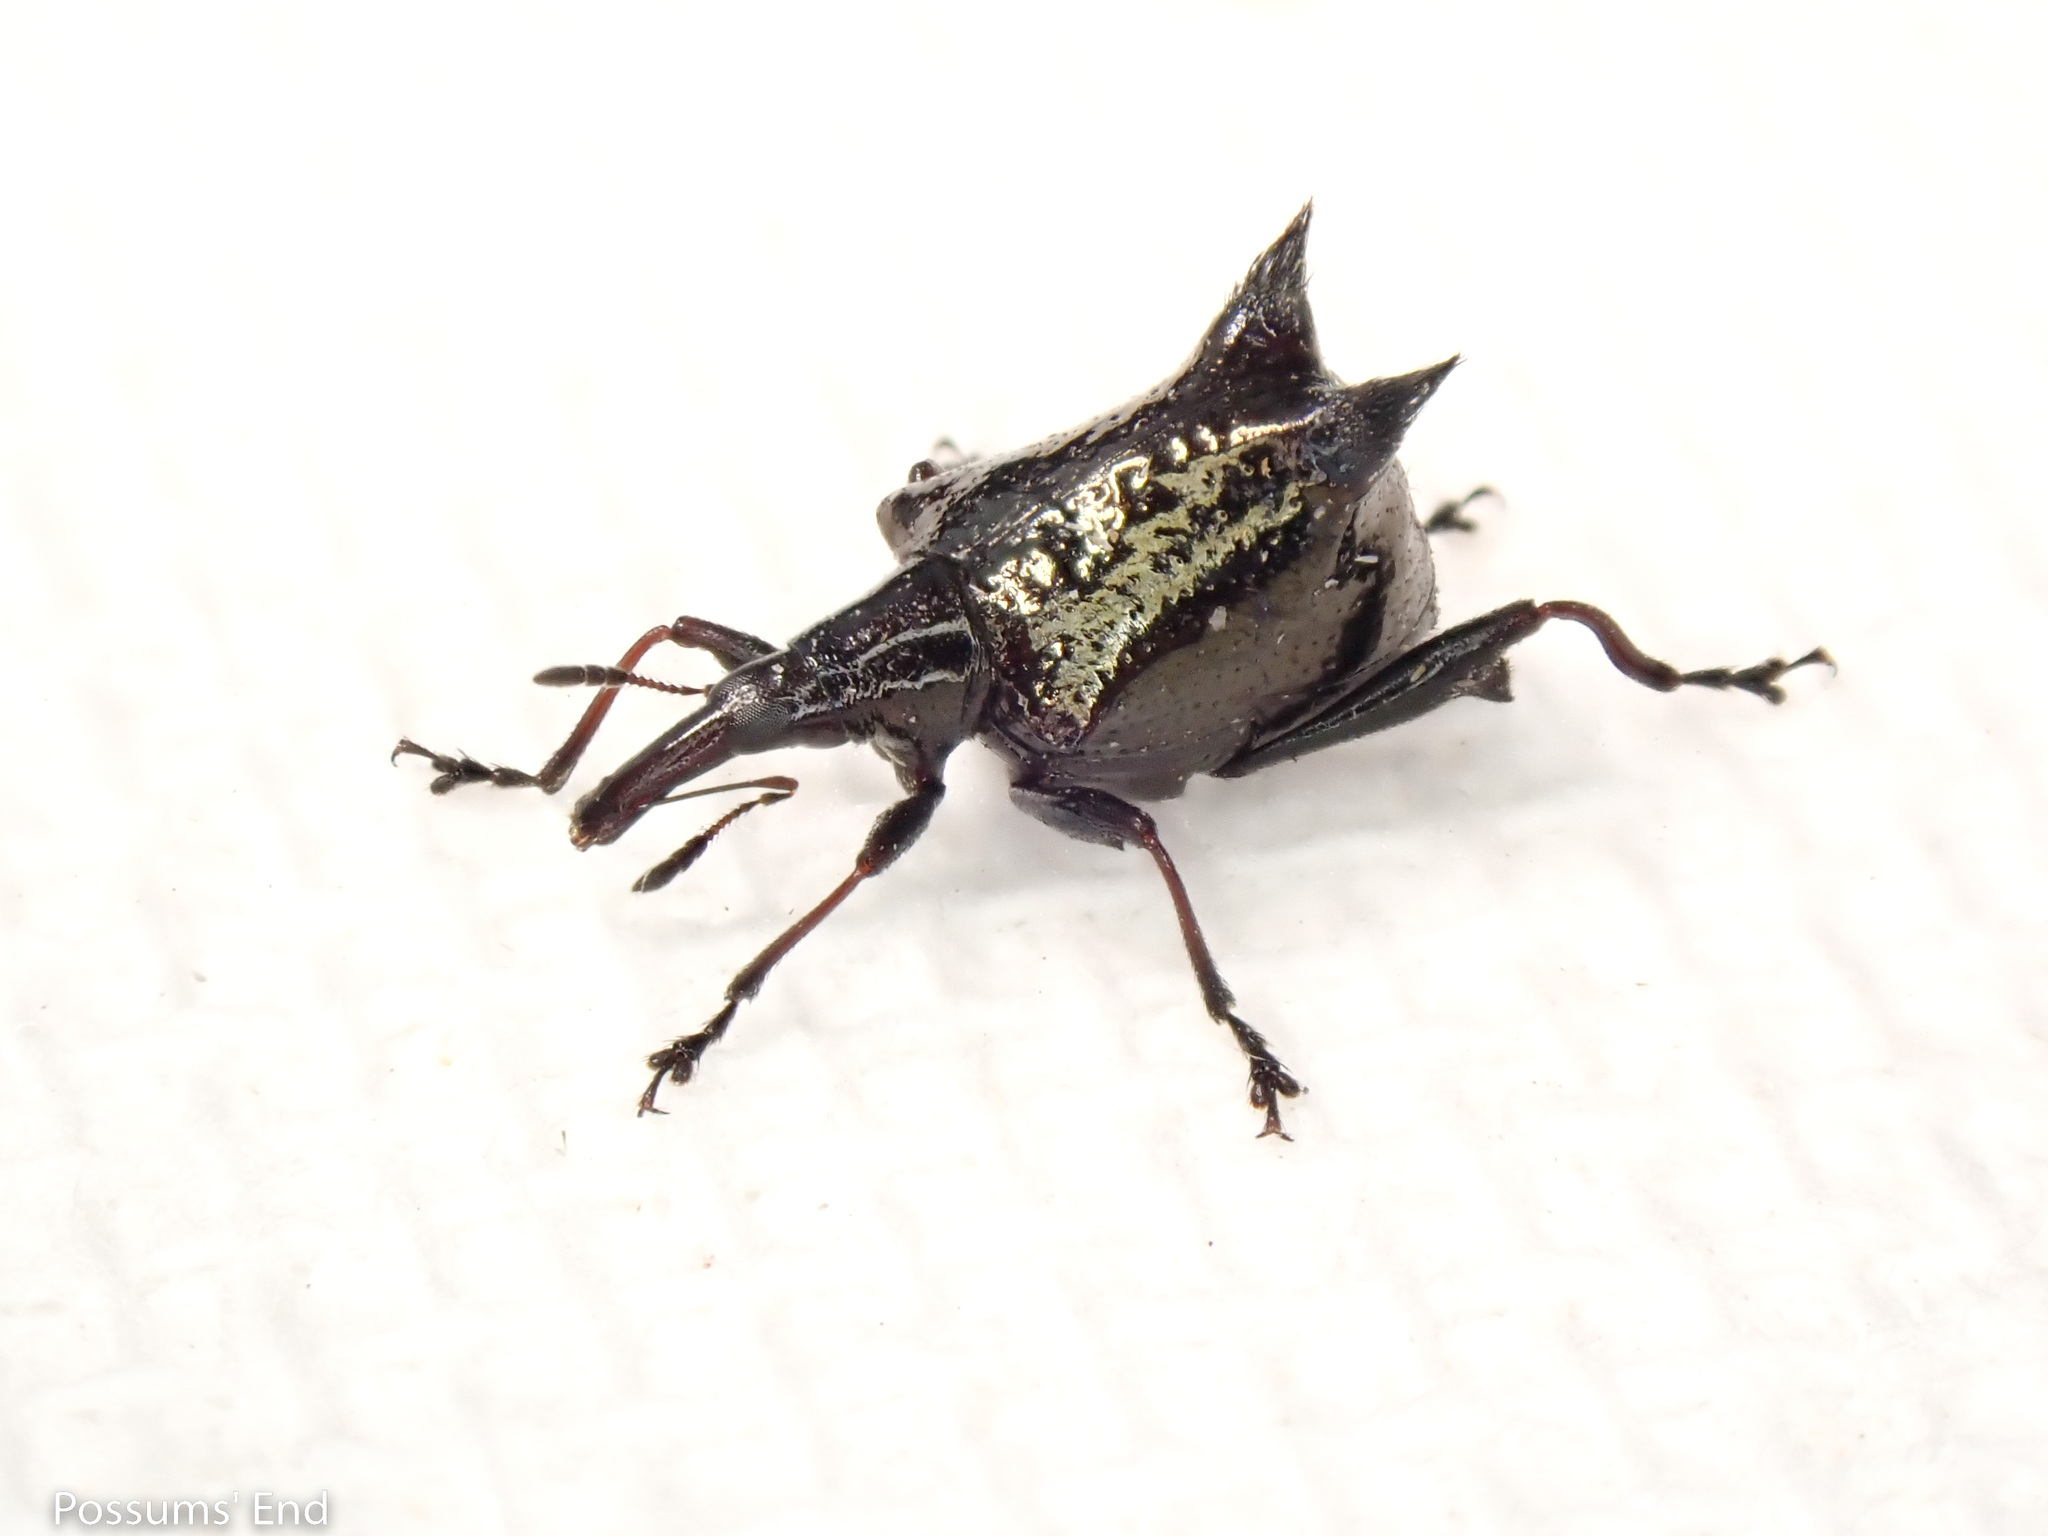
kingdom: Animalia
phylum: Arthropoda
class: Insecta
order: Coleoptera
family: Curculionidae
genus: Scolopterus
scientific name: Scolopterus penicillatus
